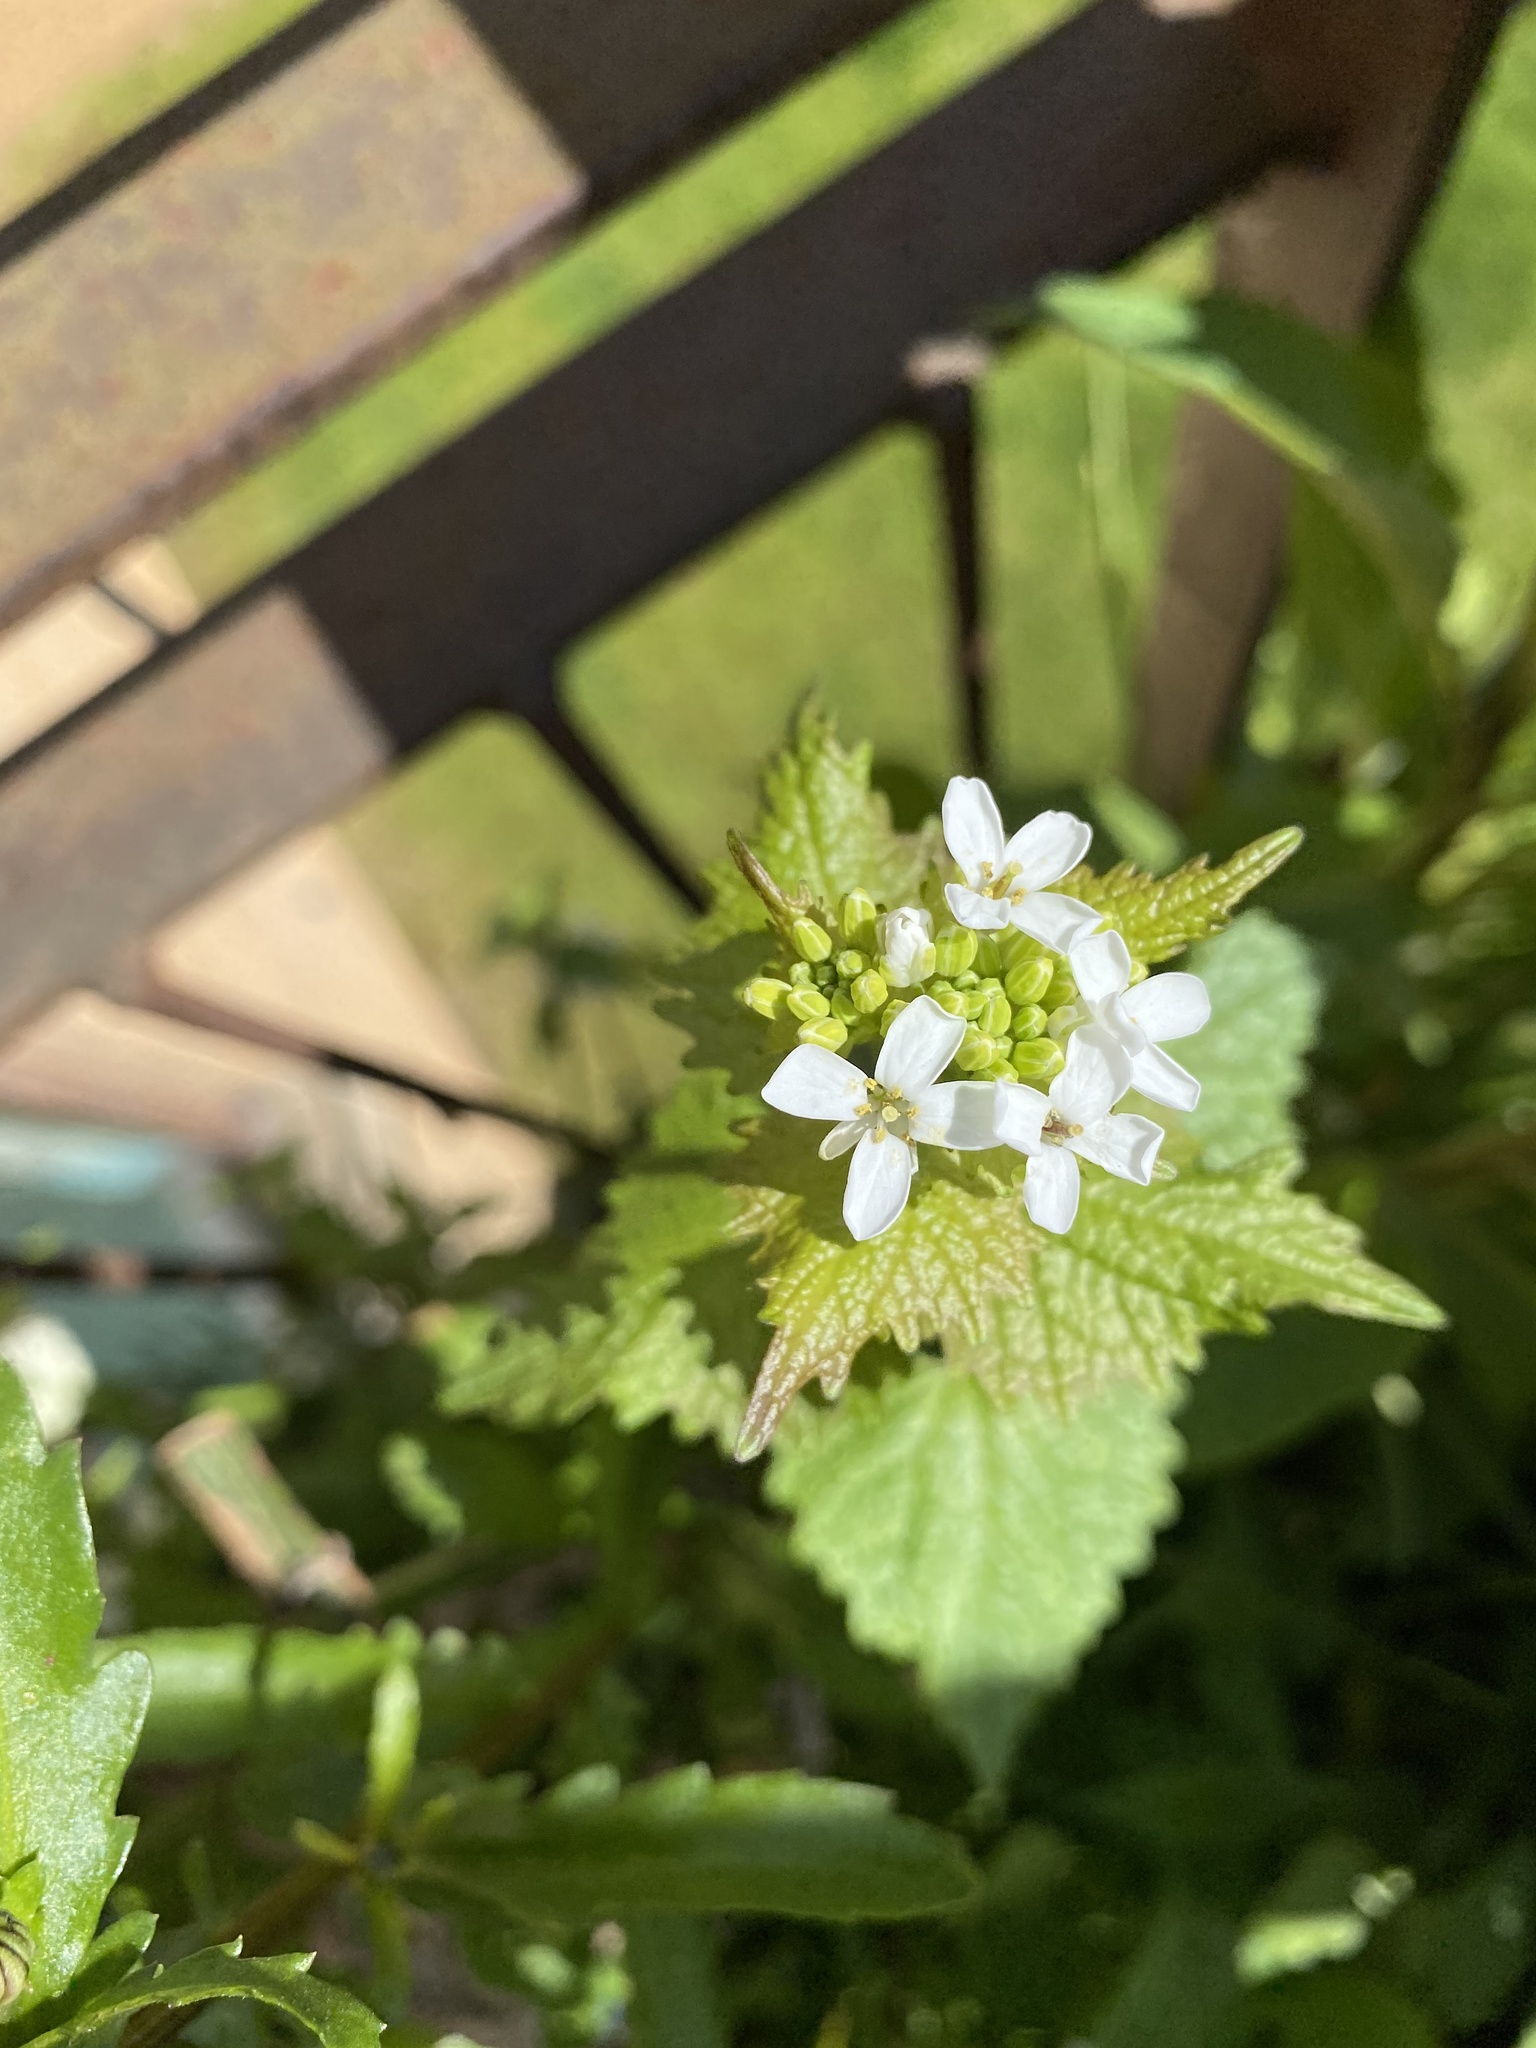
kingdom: Plantae
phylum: Tracheophyta
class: Magnoliopsida
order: Brassicales
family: Brassicaceae
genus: Alliaria
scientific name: Alliaria petiolata
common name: Garlic mustard
